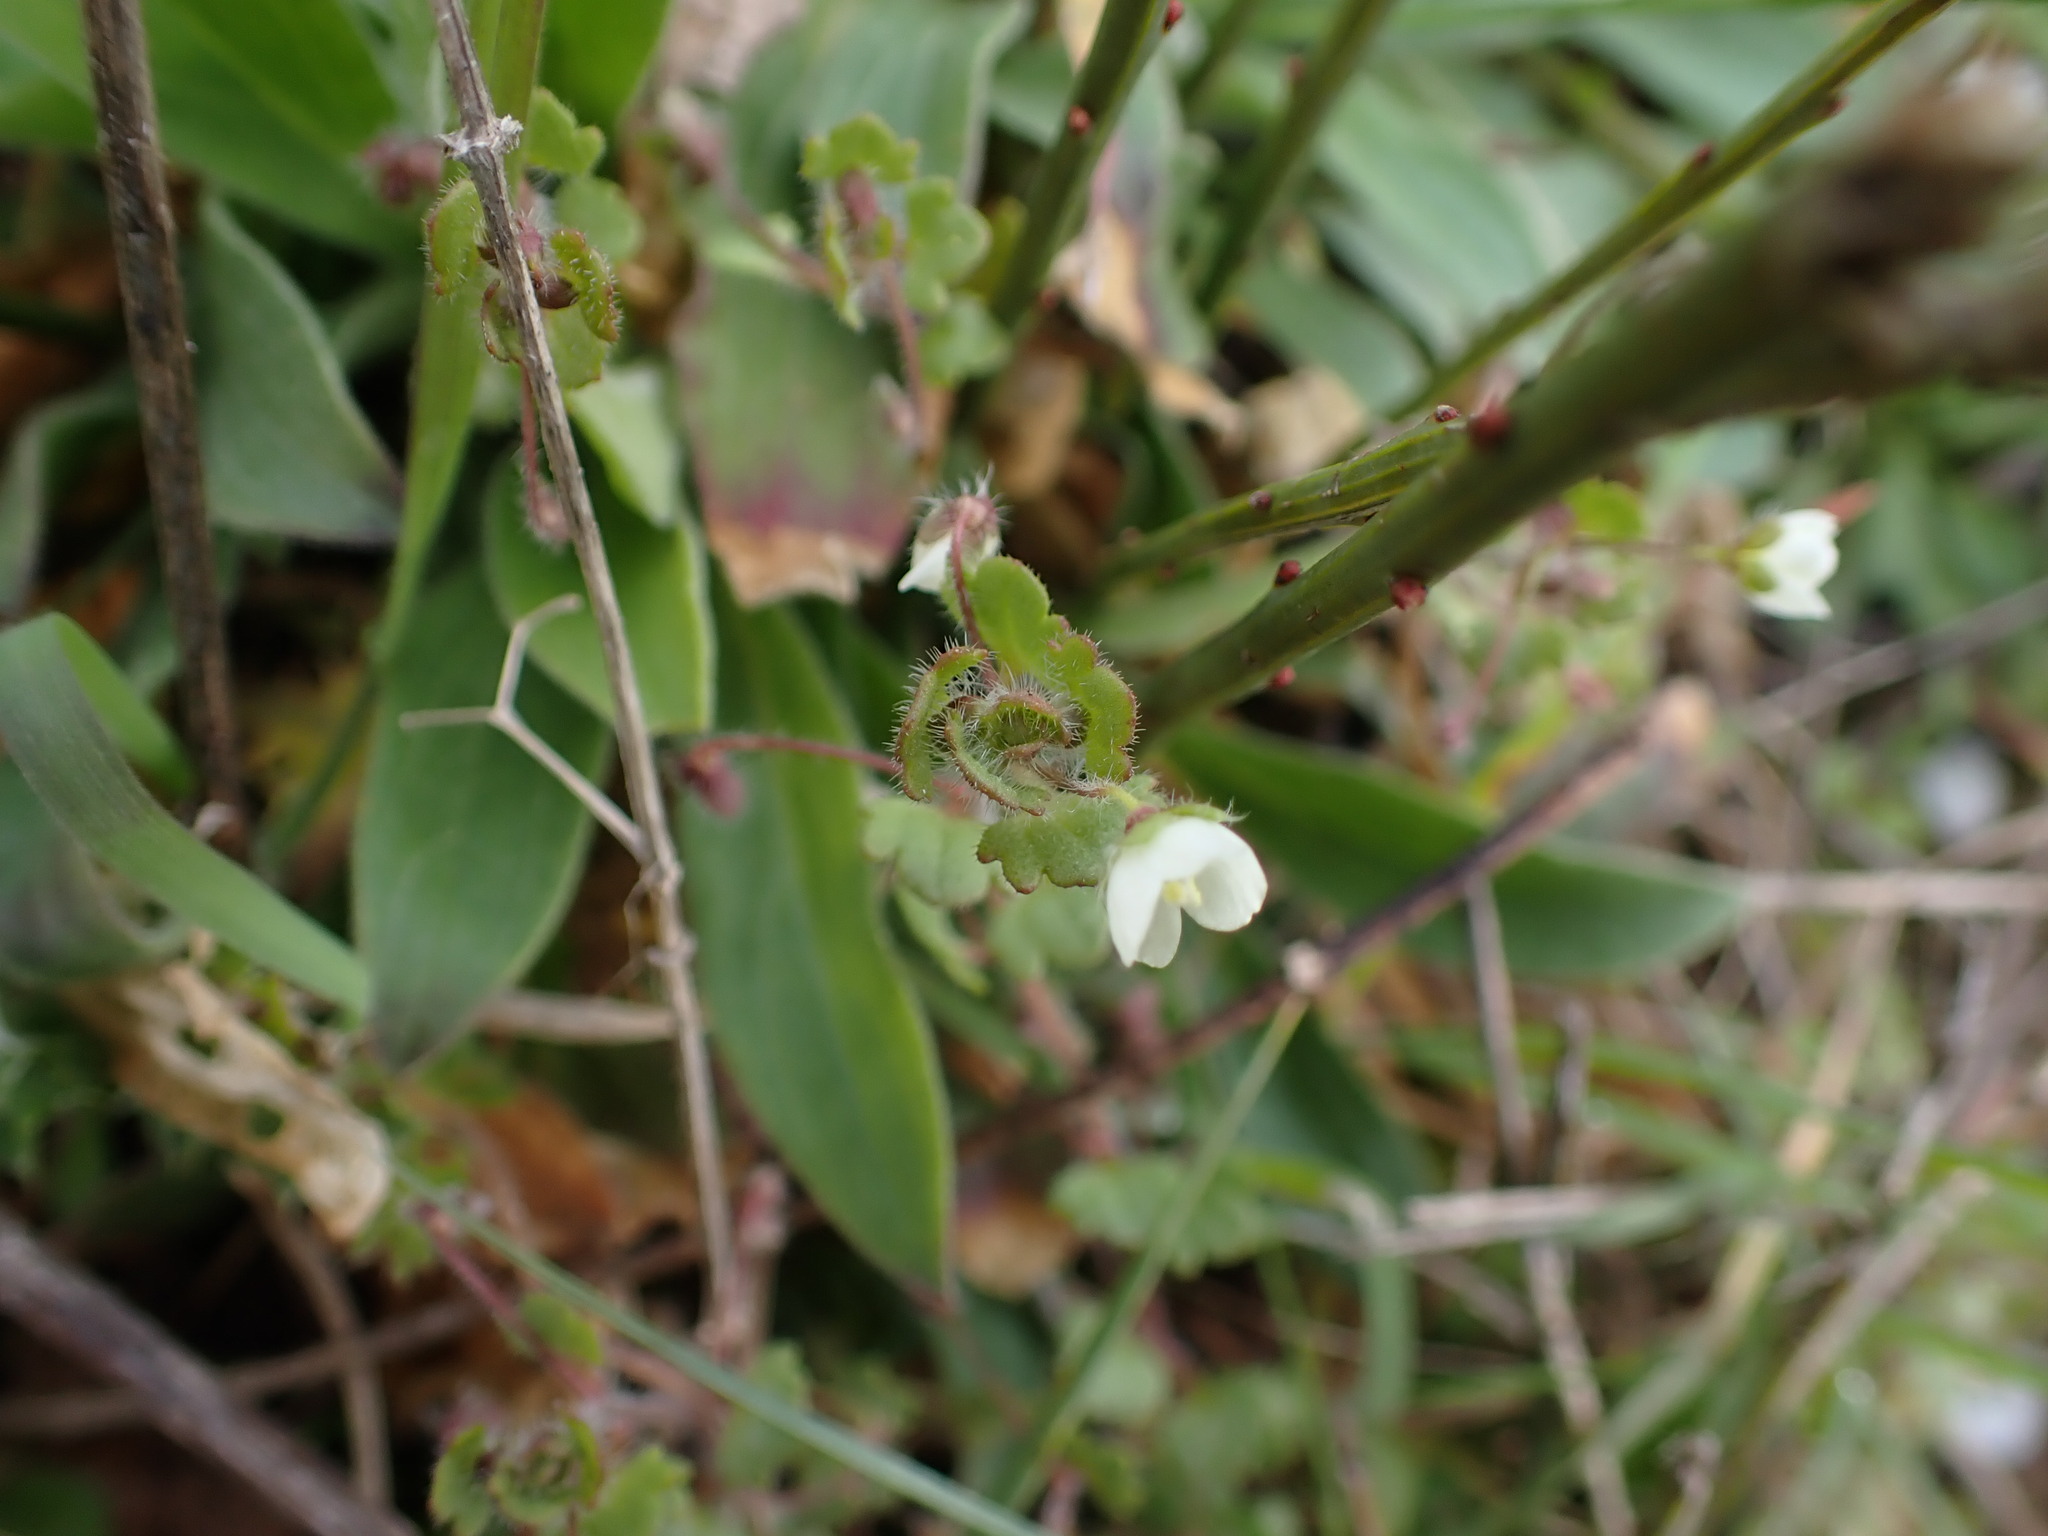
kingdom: Plantae
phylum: Tracheophyta
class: Magnoliopsida
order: Lamiales
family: Plantaginaceae
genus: Veronica
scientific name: Veronica cymbalaria
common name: Pale speedwell
